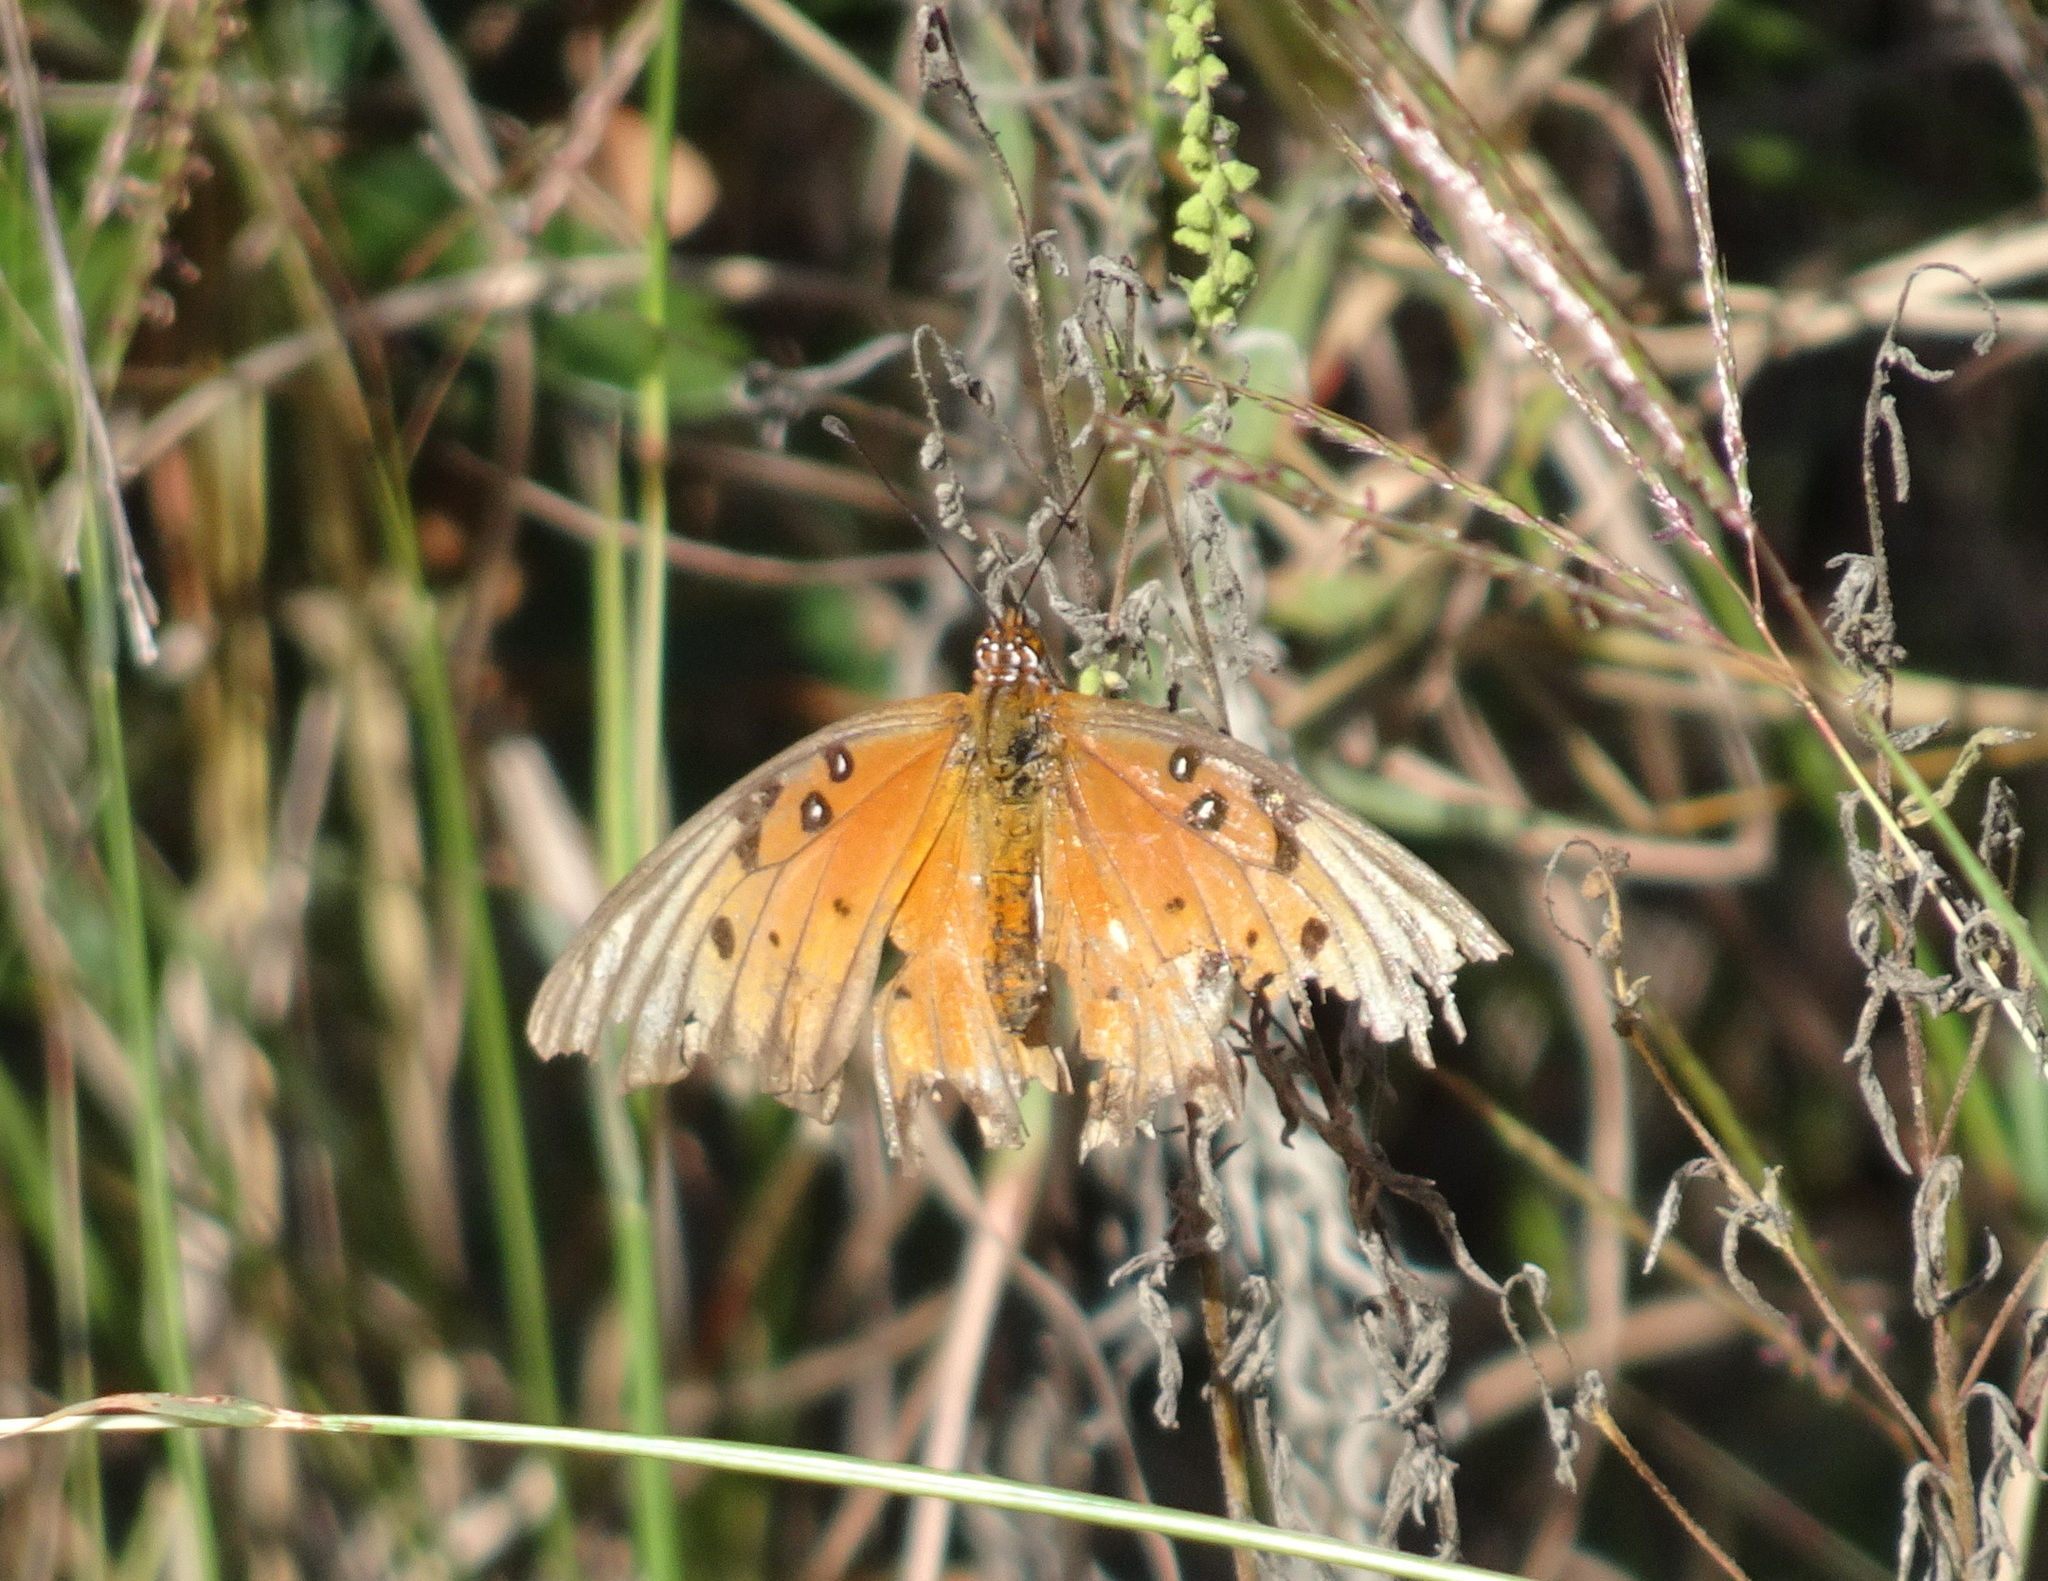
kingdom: Animalia
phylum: Arthropoda
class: Insecta
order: Lepidoptera
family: Nymphalidae
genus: Dione
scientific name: Dione vanillae
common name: Gulf fritillary
